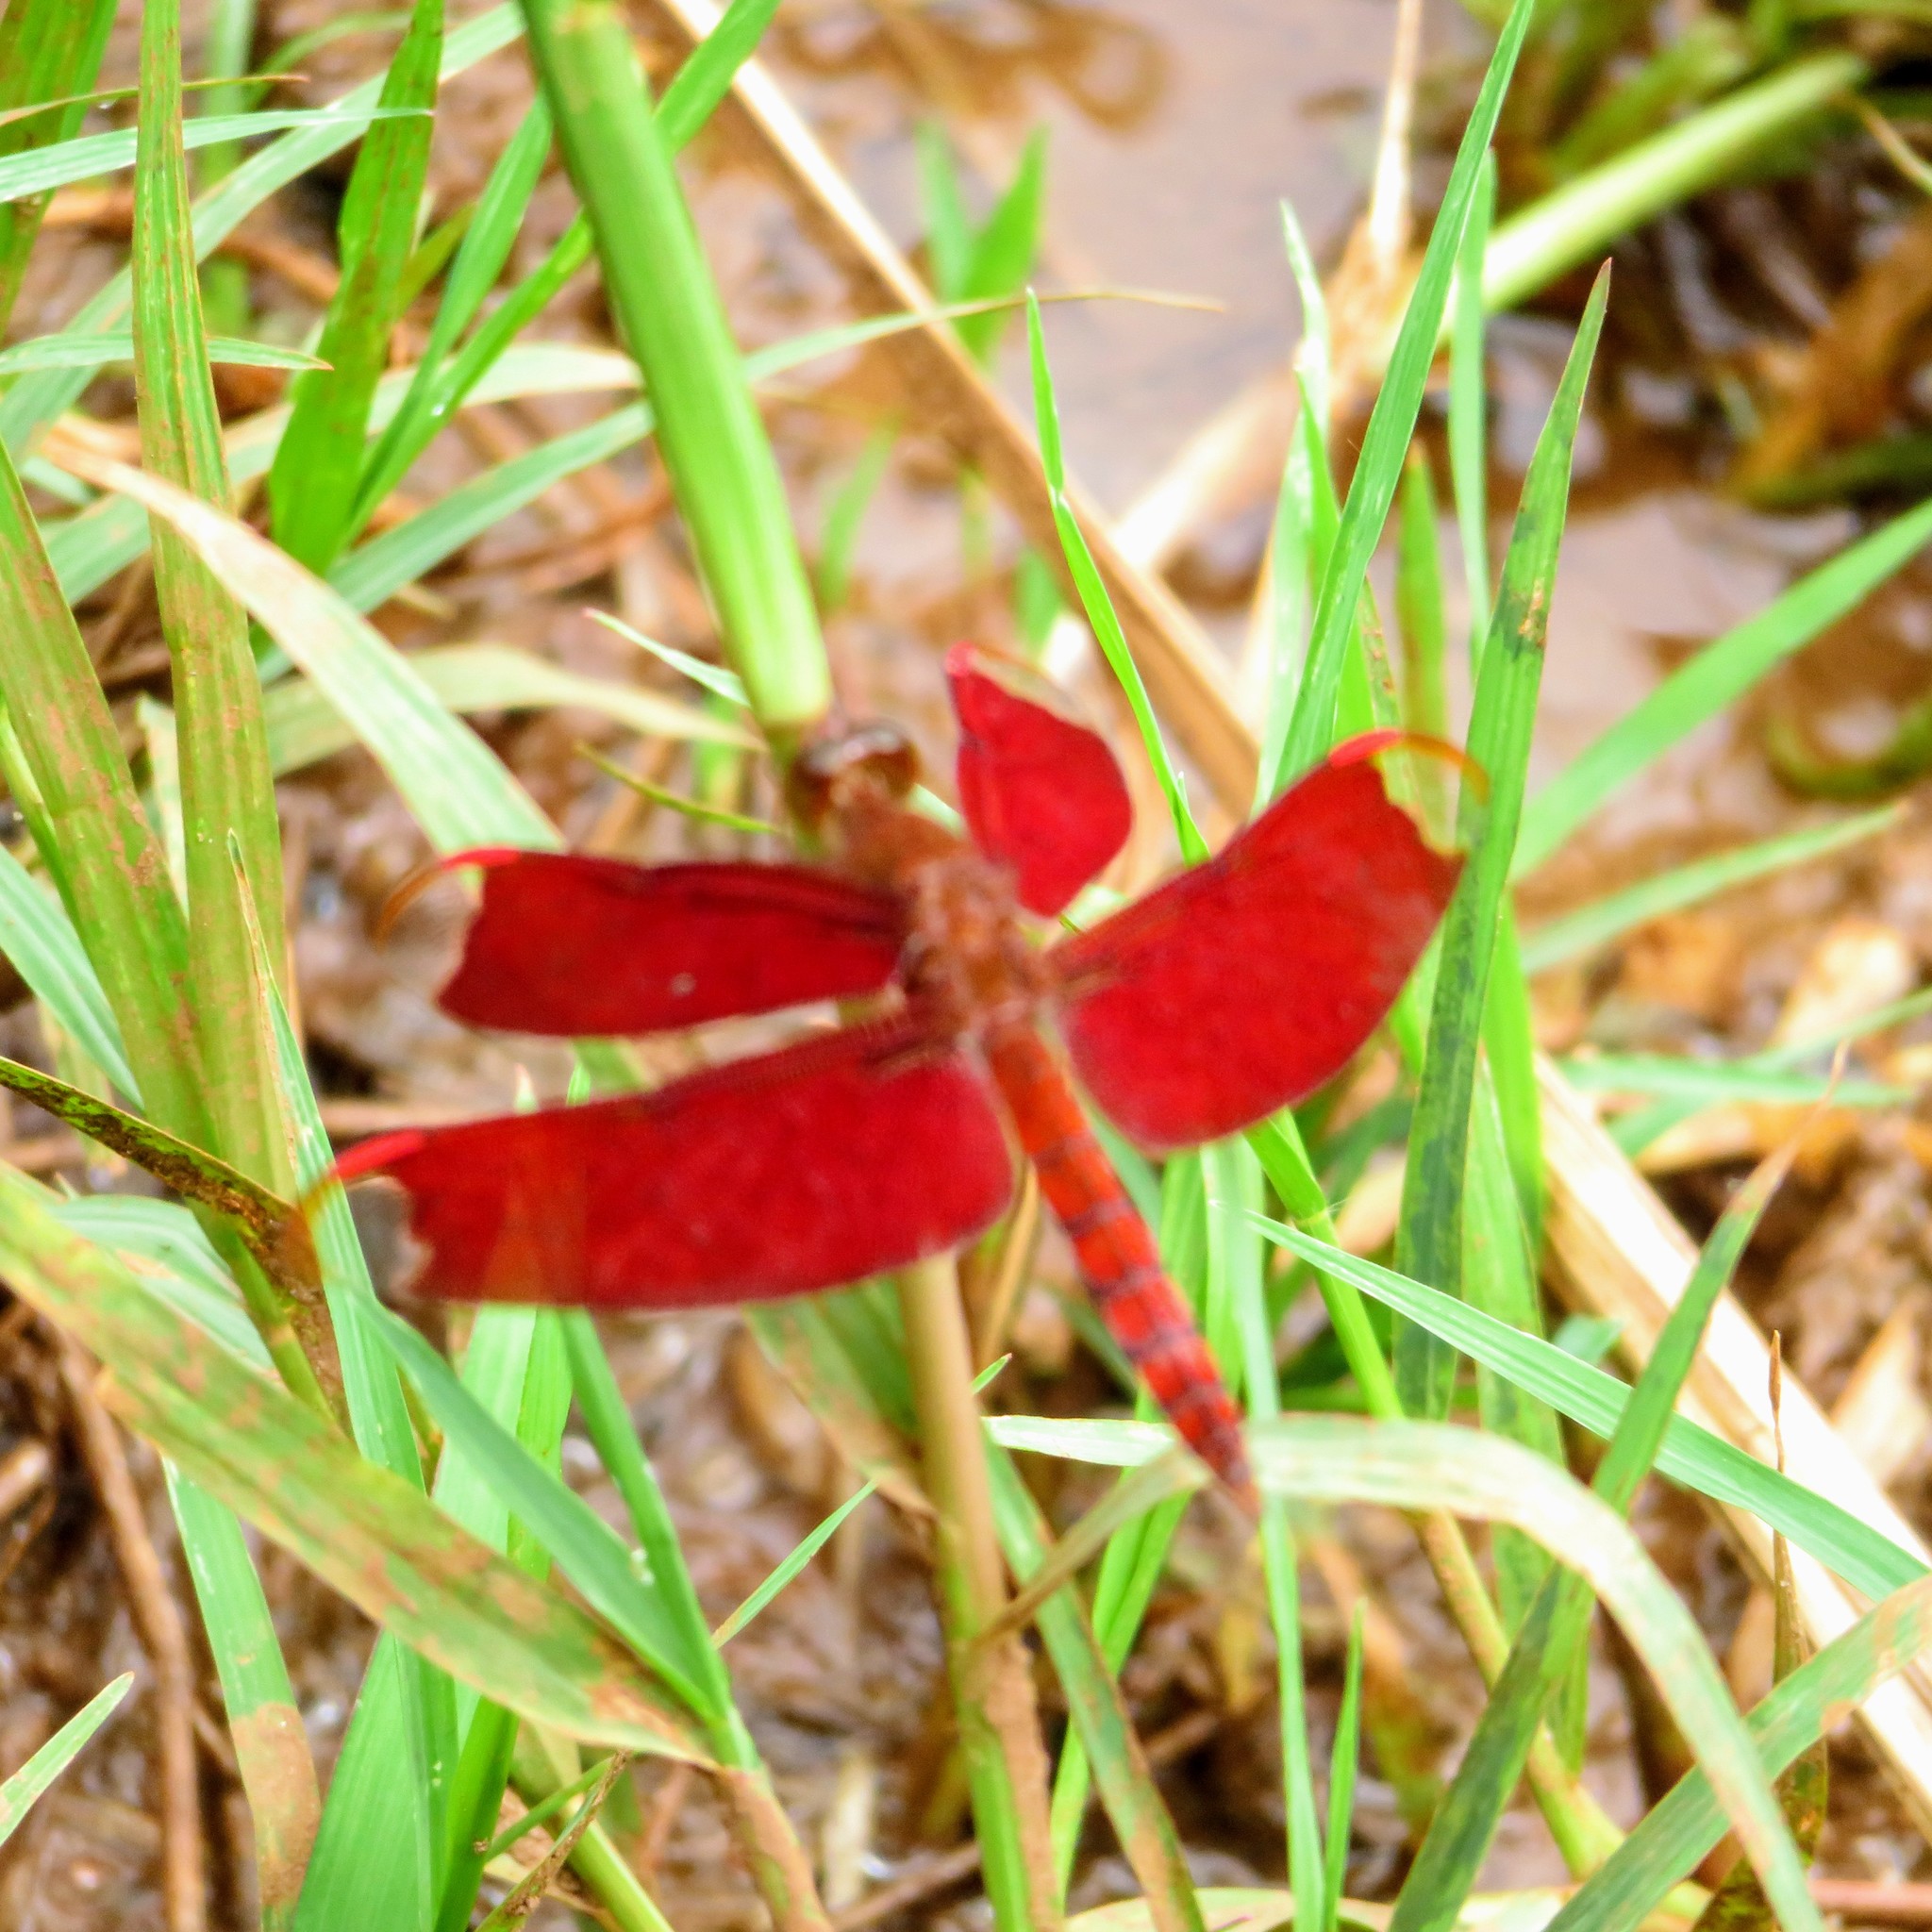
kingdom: Animalia
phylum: Arthropoda
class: Insecta
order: Odonata
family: Libellulidae
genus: Neurothemis
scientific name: Neurothemis fulvia
